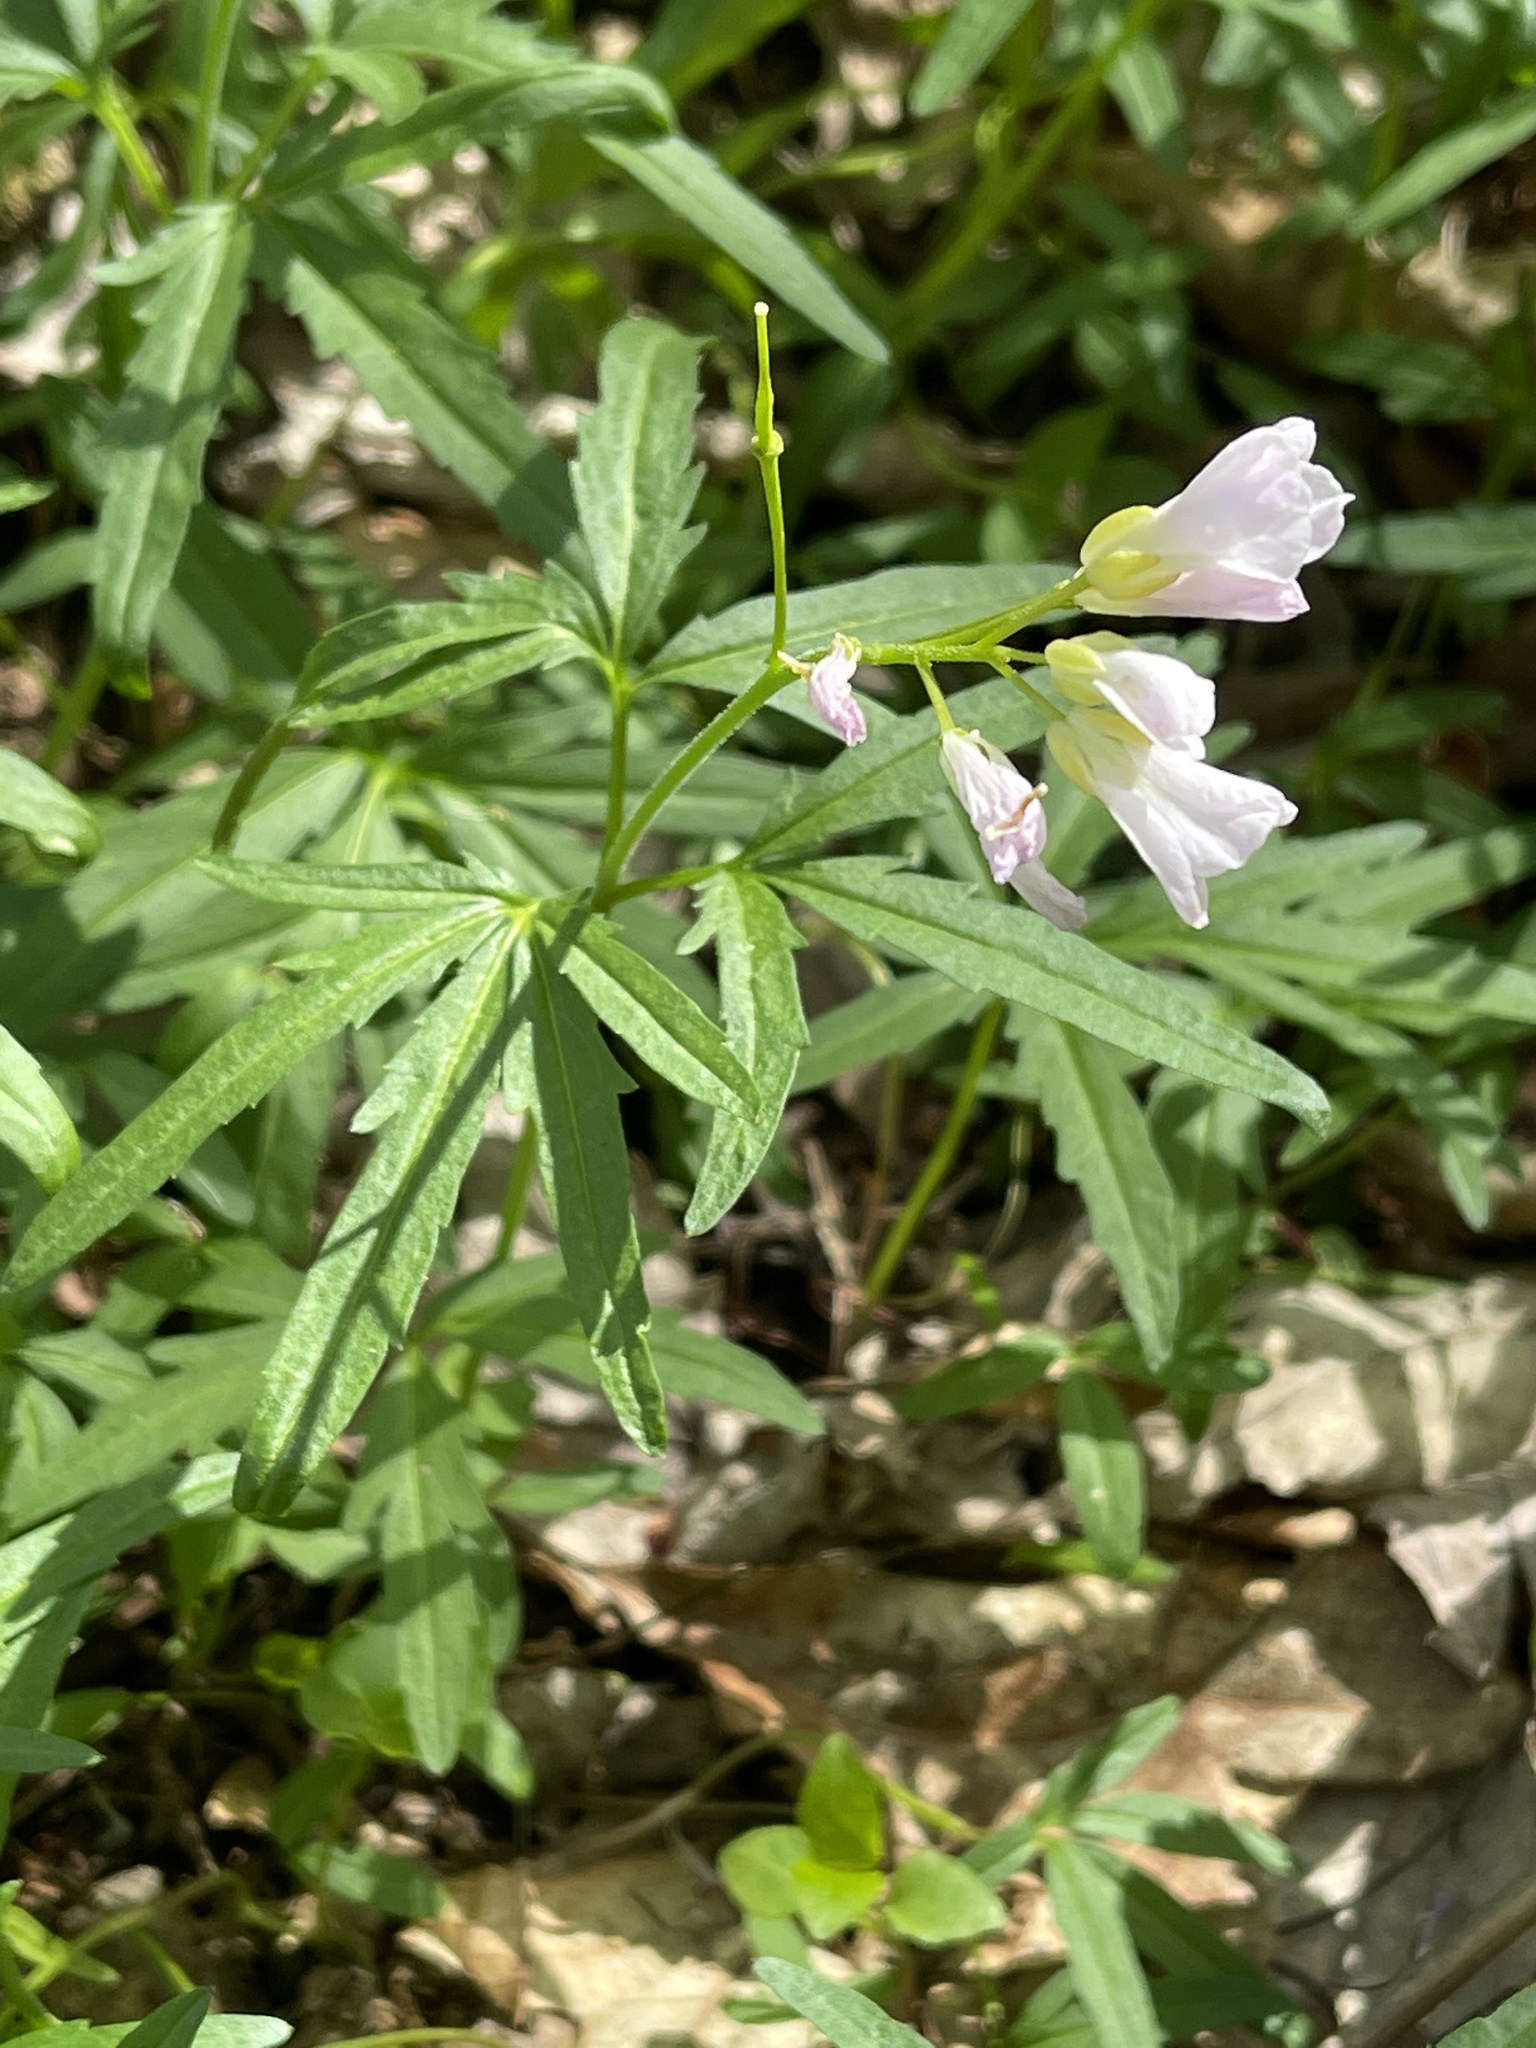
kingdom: Plantae
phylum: Tracheophyta
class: Magnoliopsida
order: Brassicales
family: Brassicaceae
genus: Cardamine
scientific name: Cardamine concatenata
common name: Cut-leaf toothcup
